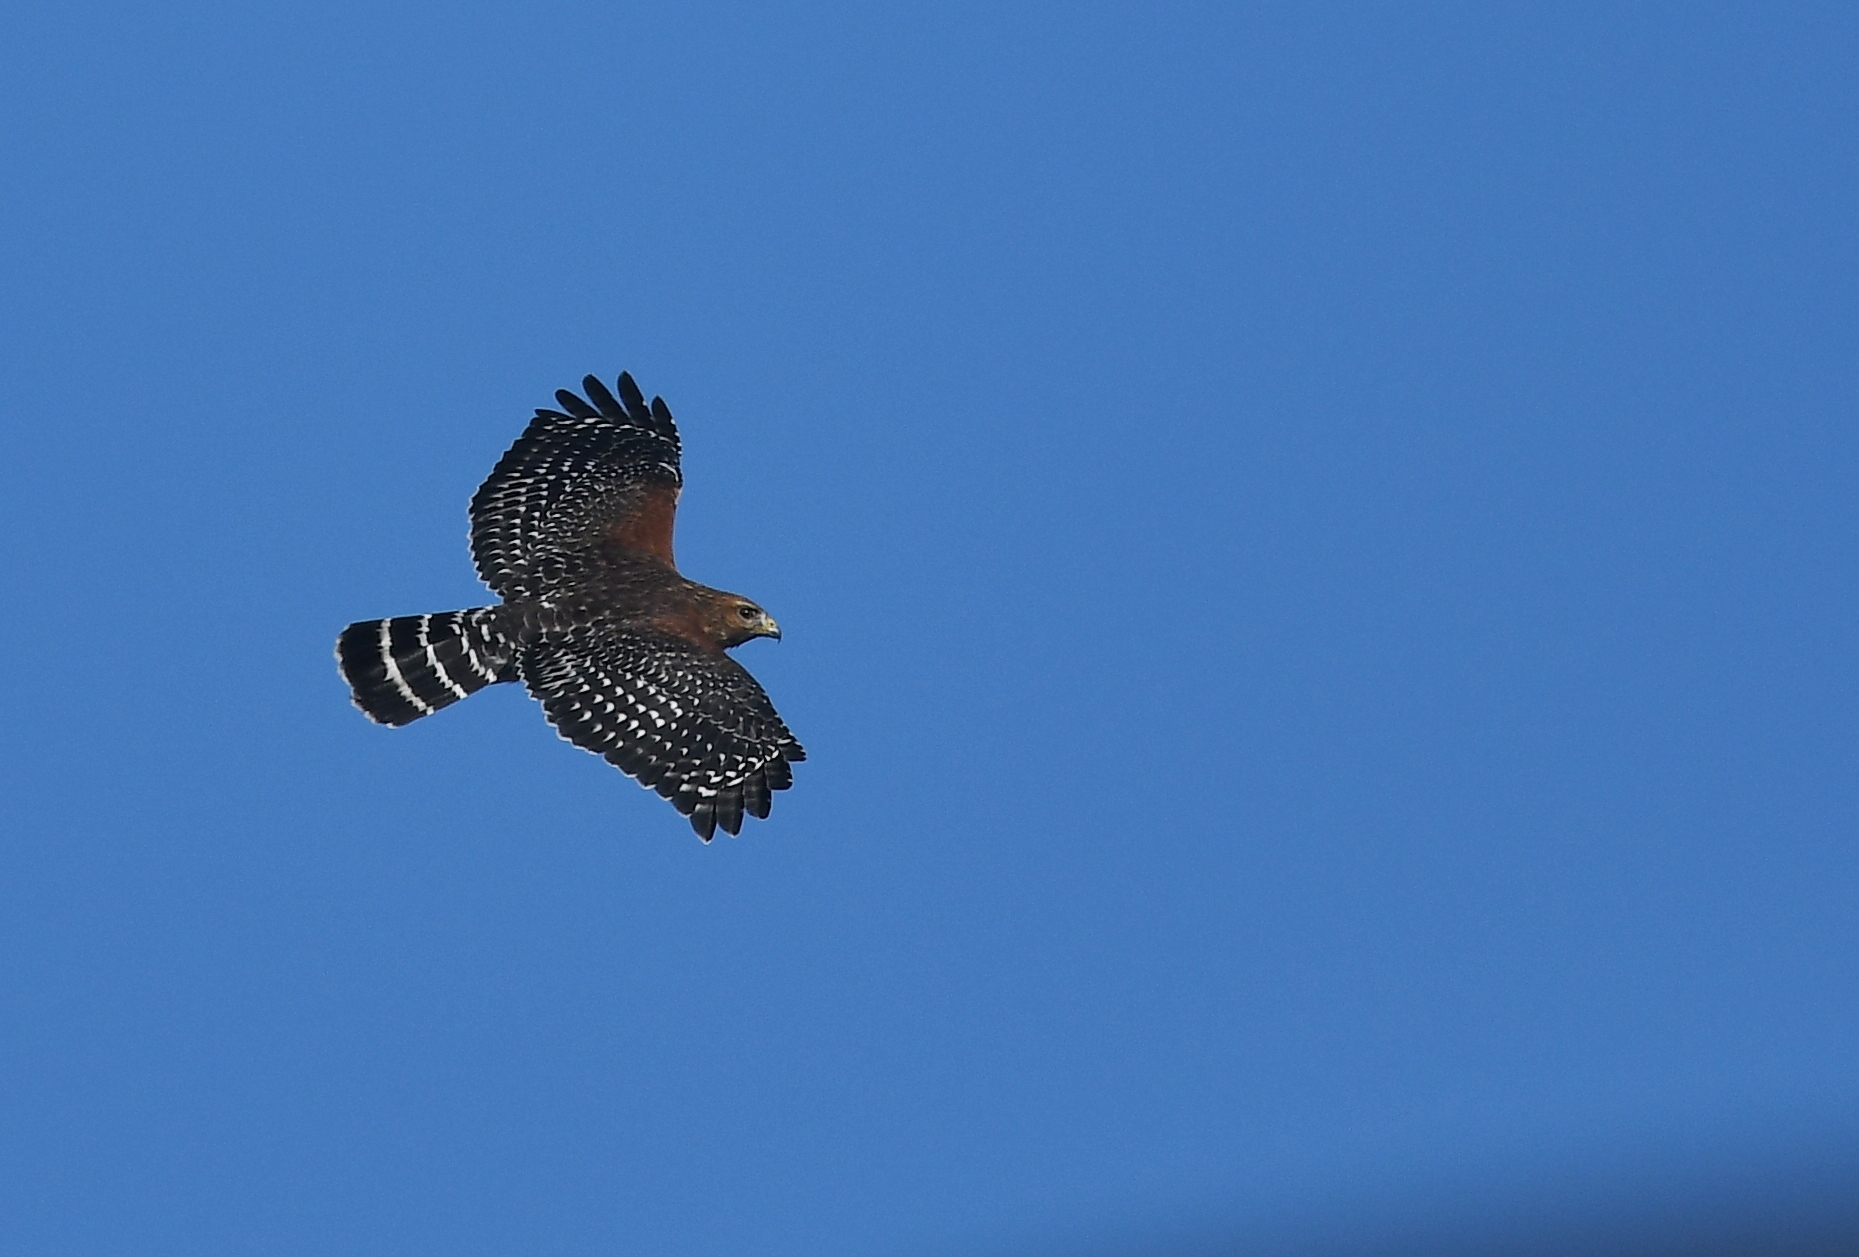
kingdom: Animalia
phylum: Chordata
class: Aves
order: Accipitriformes
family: Accipitridae
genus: Buteo
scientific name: Buteo lineatus
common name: Red-shouldered hawk
